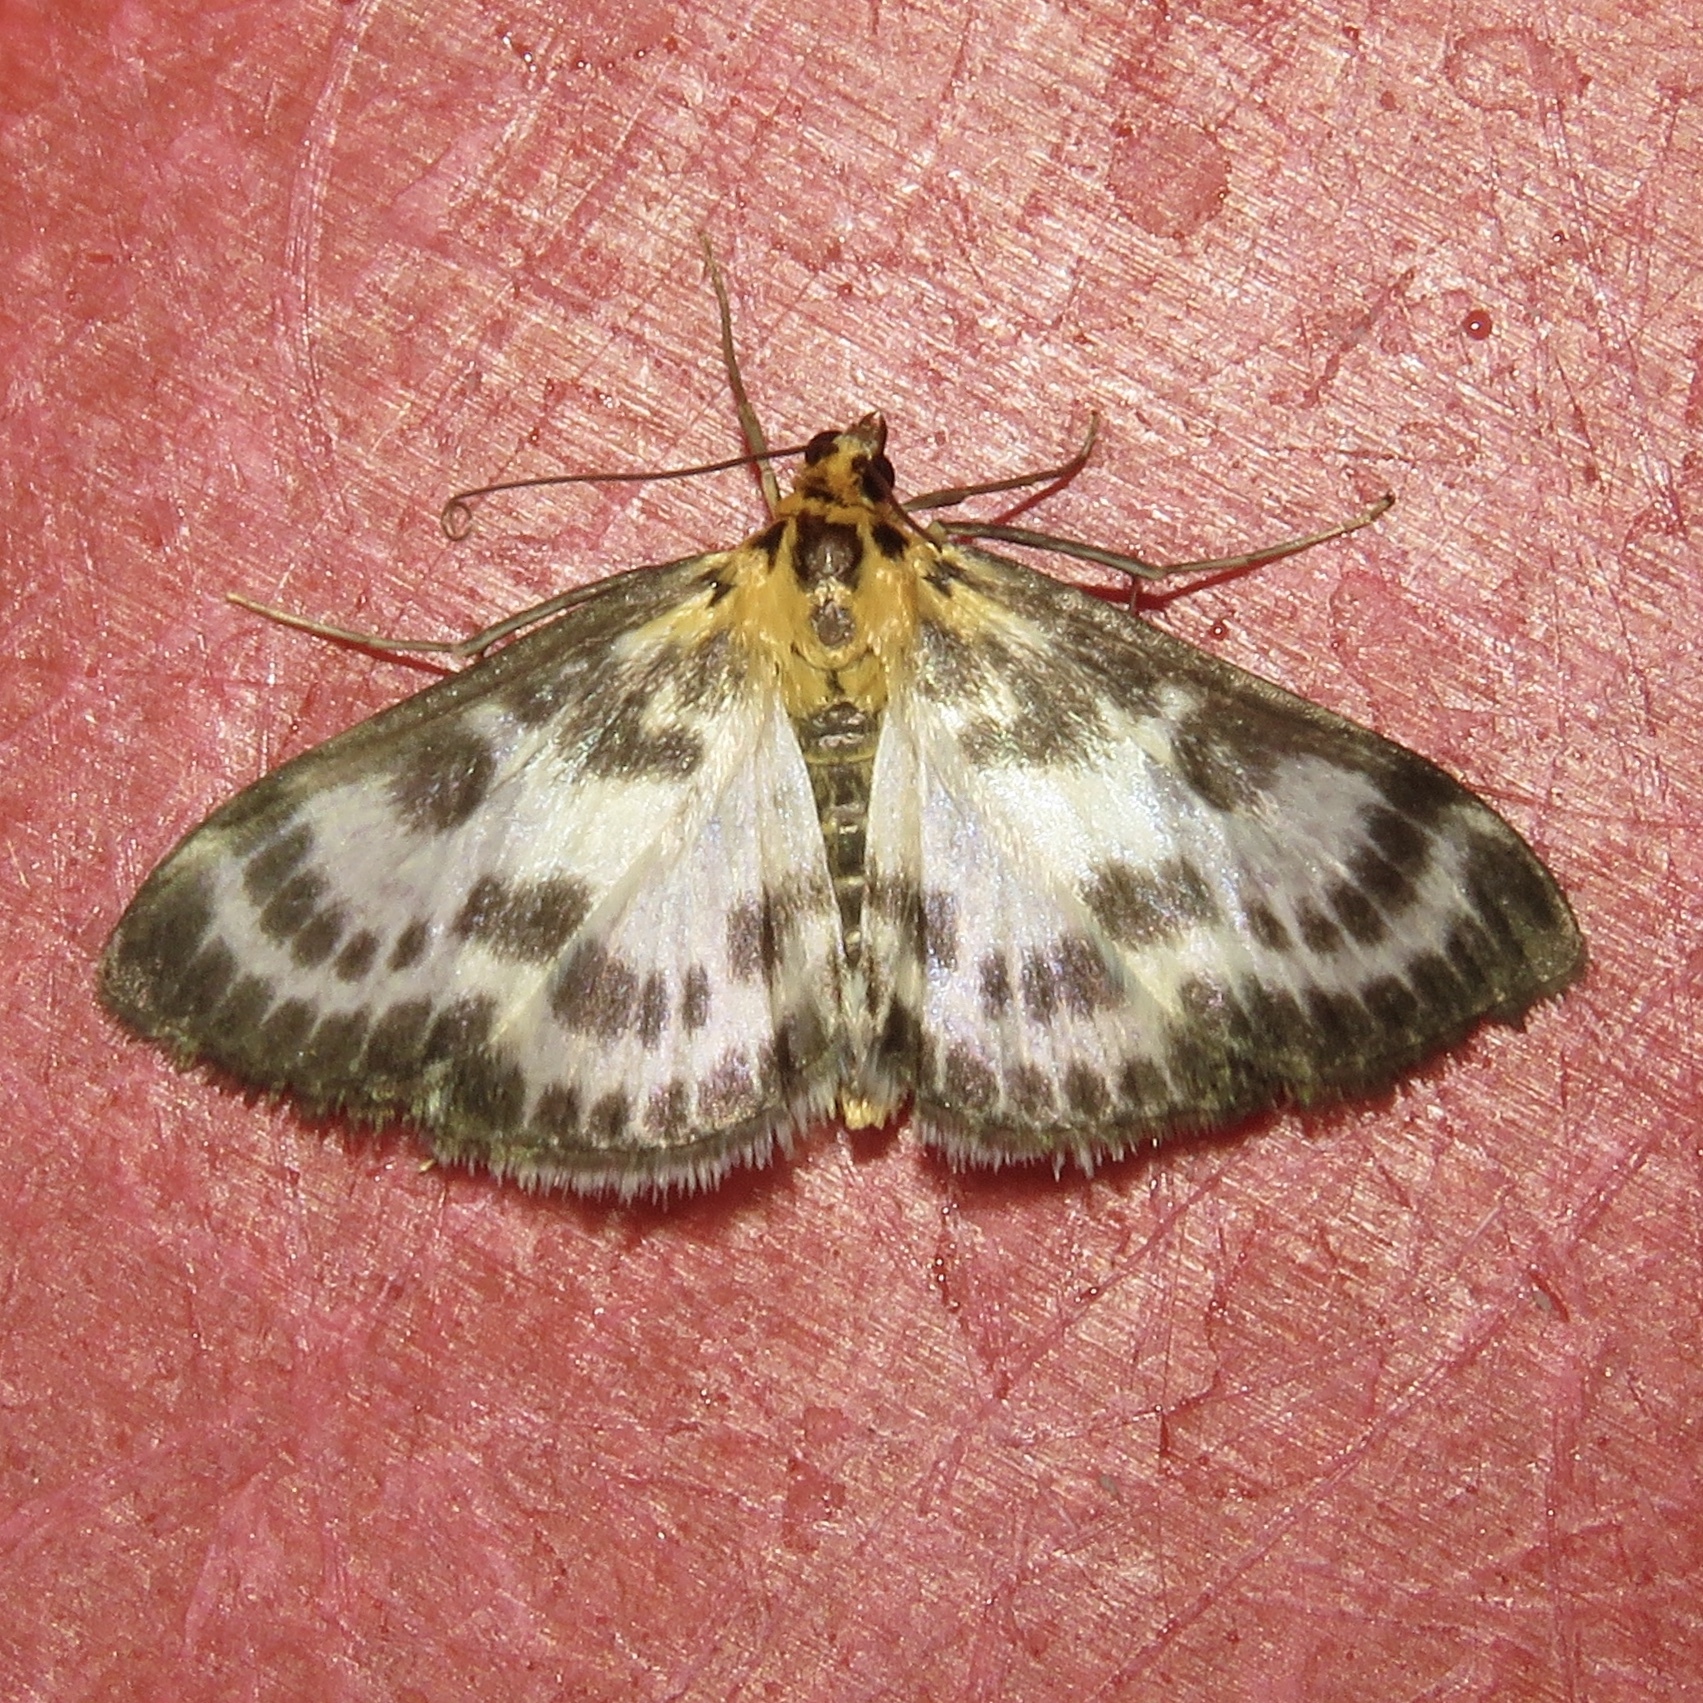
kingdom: Animalia
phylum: Arthropoda
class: Insecta
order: Lepidoptera
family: Crambidae
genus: Anania
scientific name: Anania hortulata
